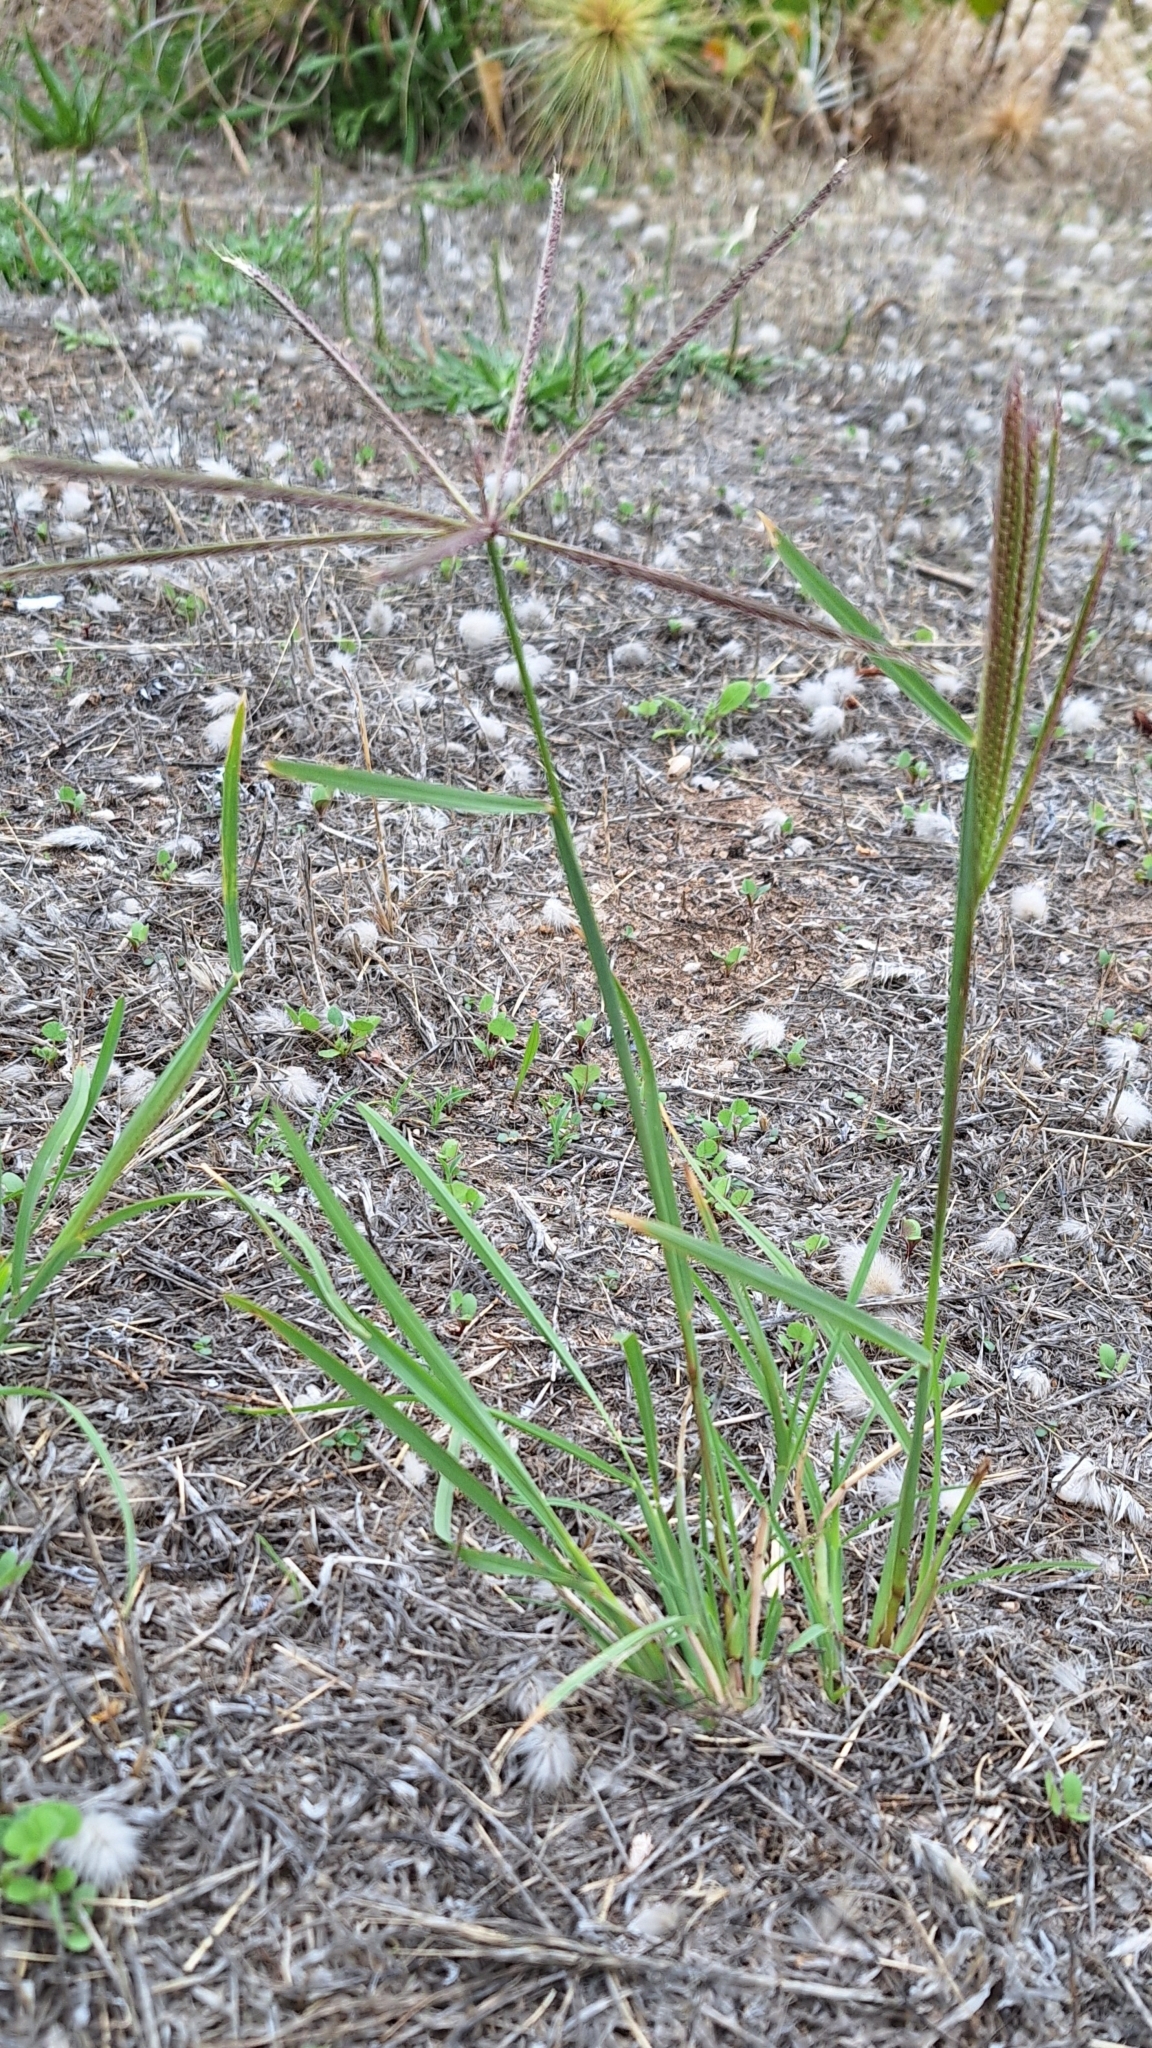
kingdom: Plantae
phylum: Tracheophyta
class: Liliopsida
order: Poales
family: Poaceae
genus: Chloris
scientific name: Chloris truncata
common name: Windmill-grass
